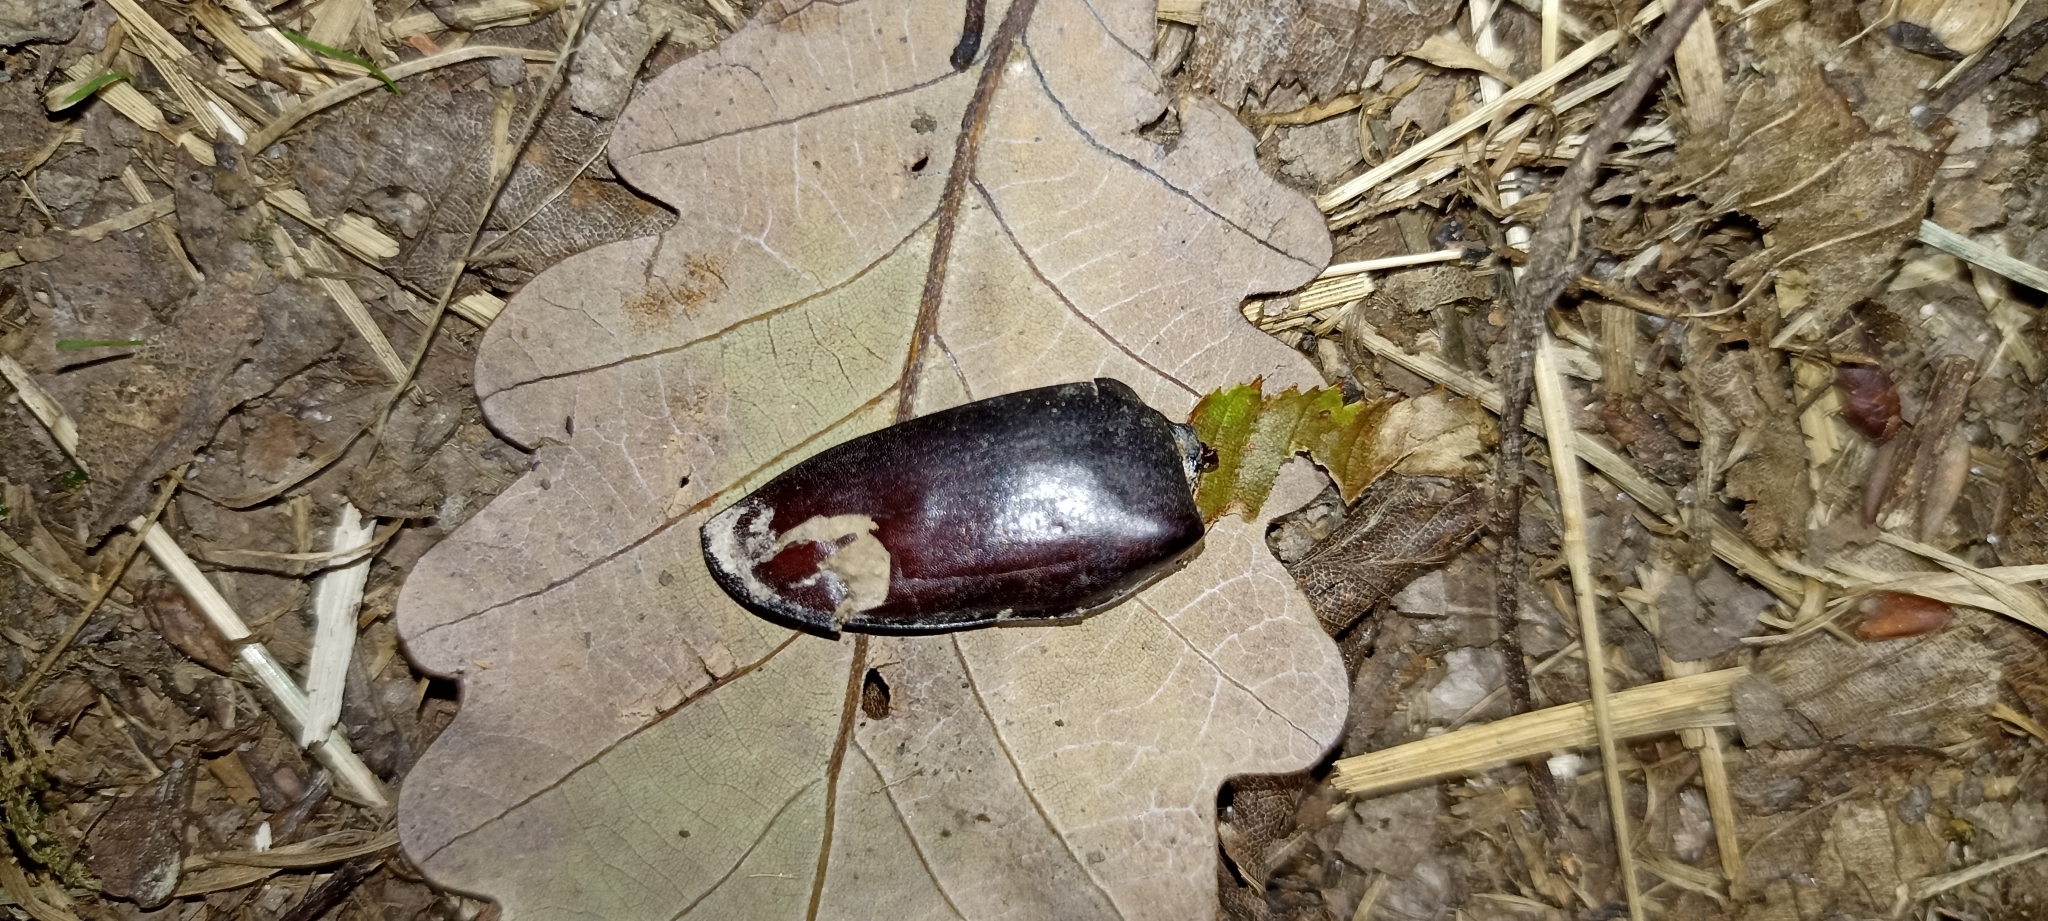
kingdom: Animalia
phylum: Arthropoda
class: Insecta
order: Coleoptera
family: Lucanidae
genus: Lucanus
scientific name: Lucanus cervus
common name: Stag beetle
